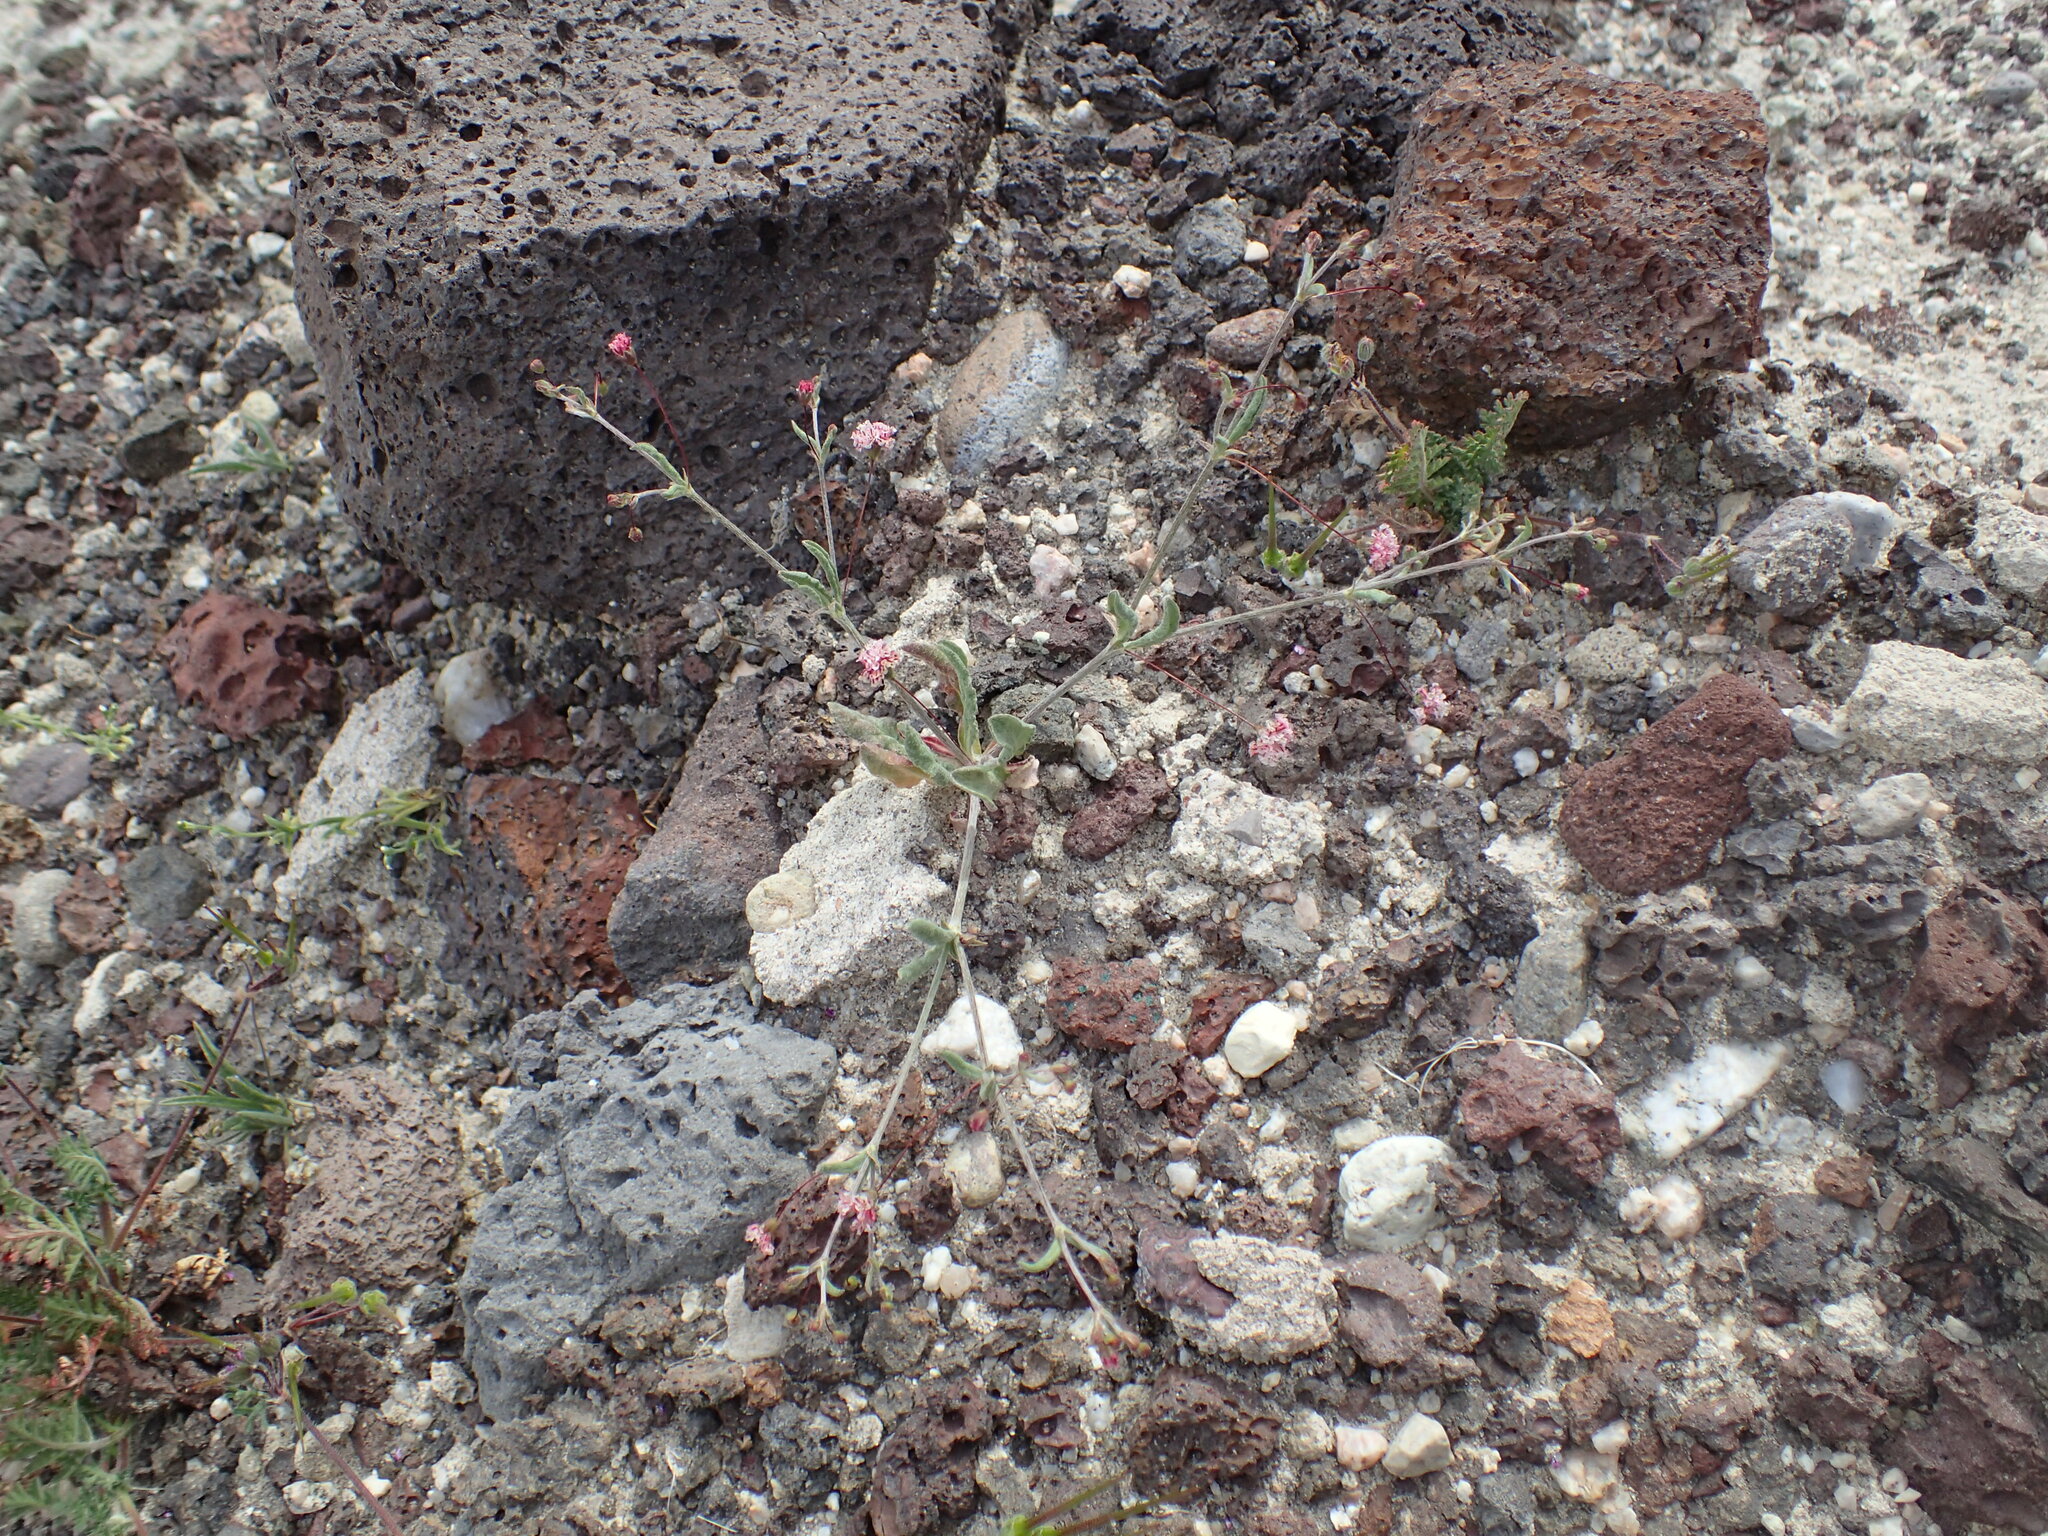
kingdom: Plantae
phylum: Tracheophyta
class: Magnoliopsida
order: Caryophyllales
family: Polygonaceae
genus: Eriogonum
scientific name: Eriogonum gracillimum
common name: Rose-and-white wild buckwheat
